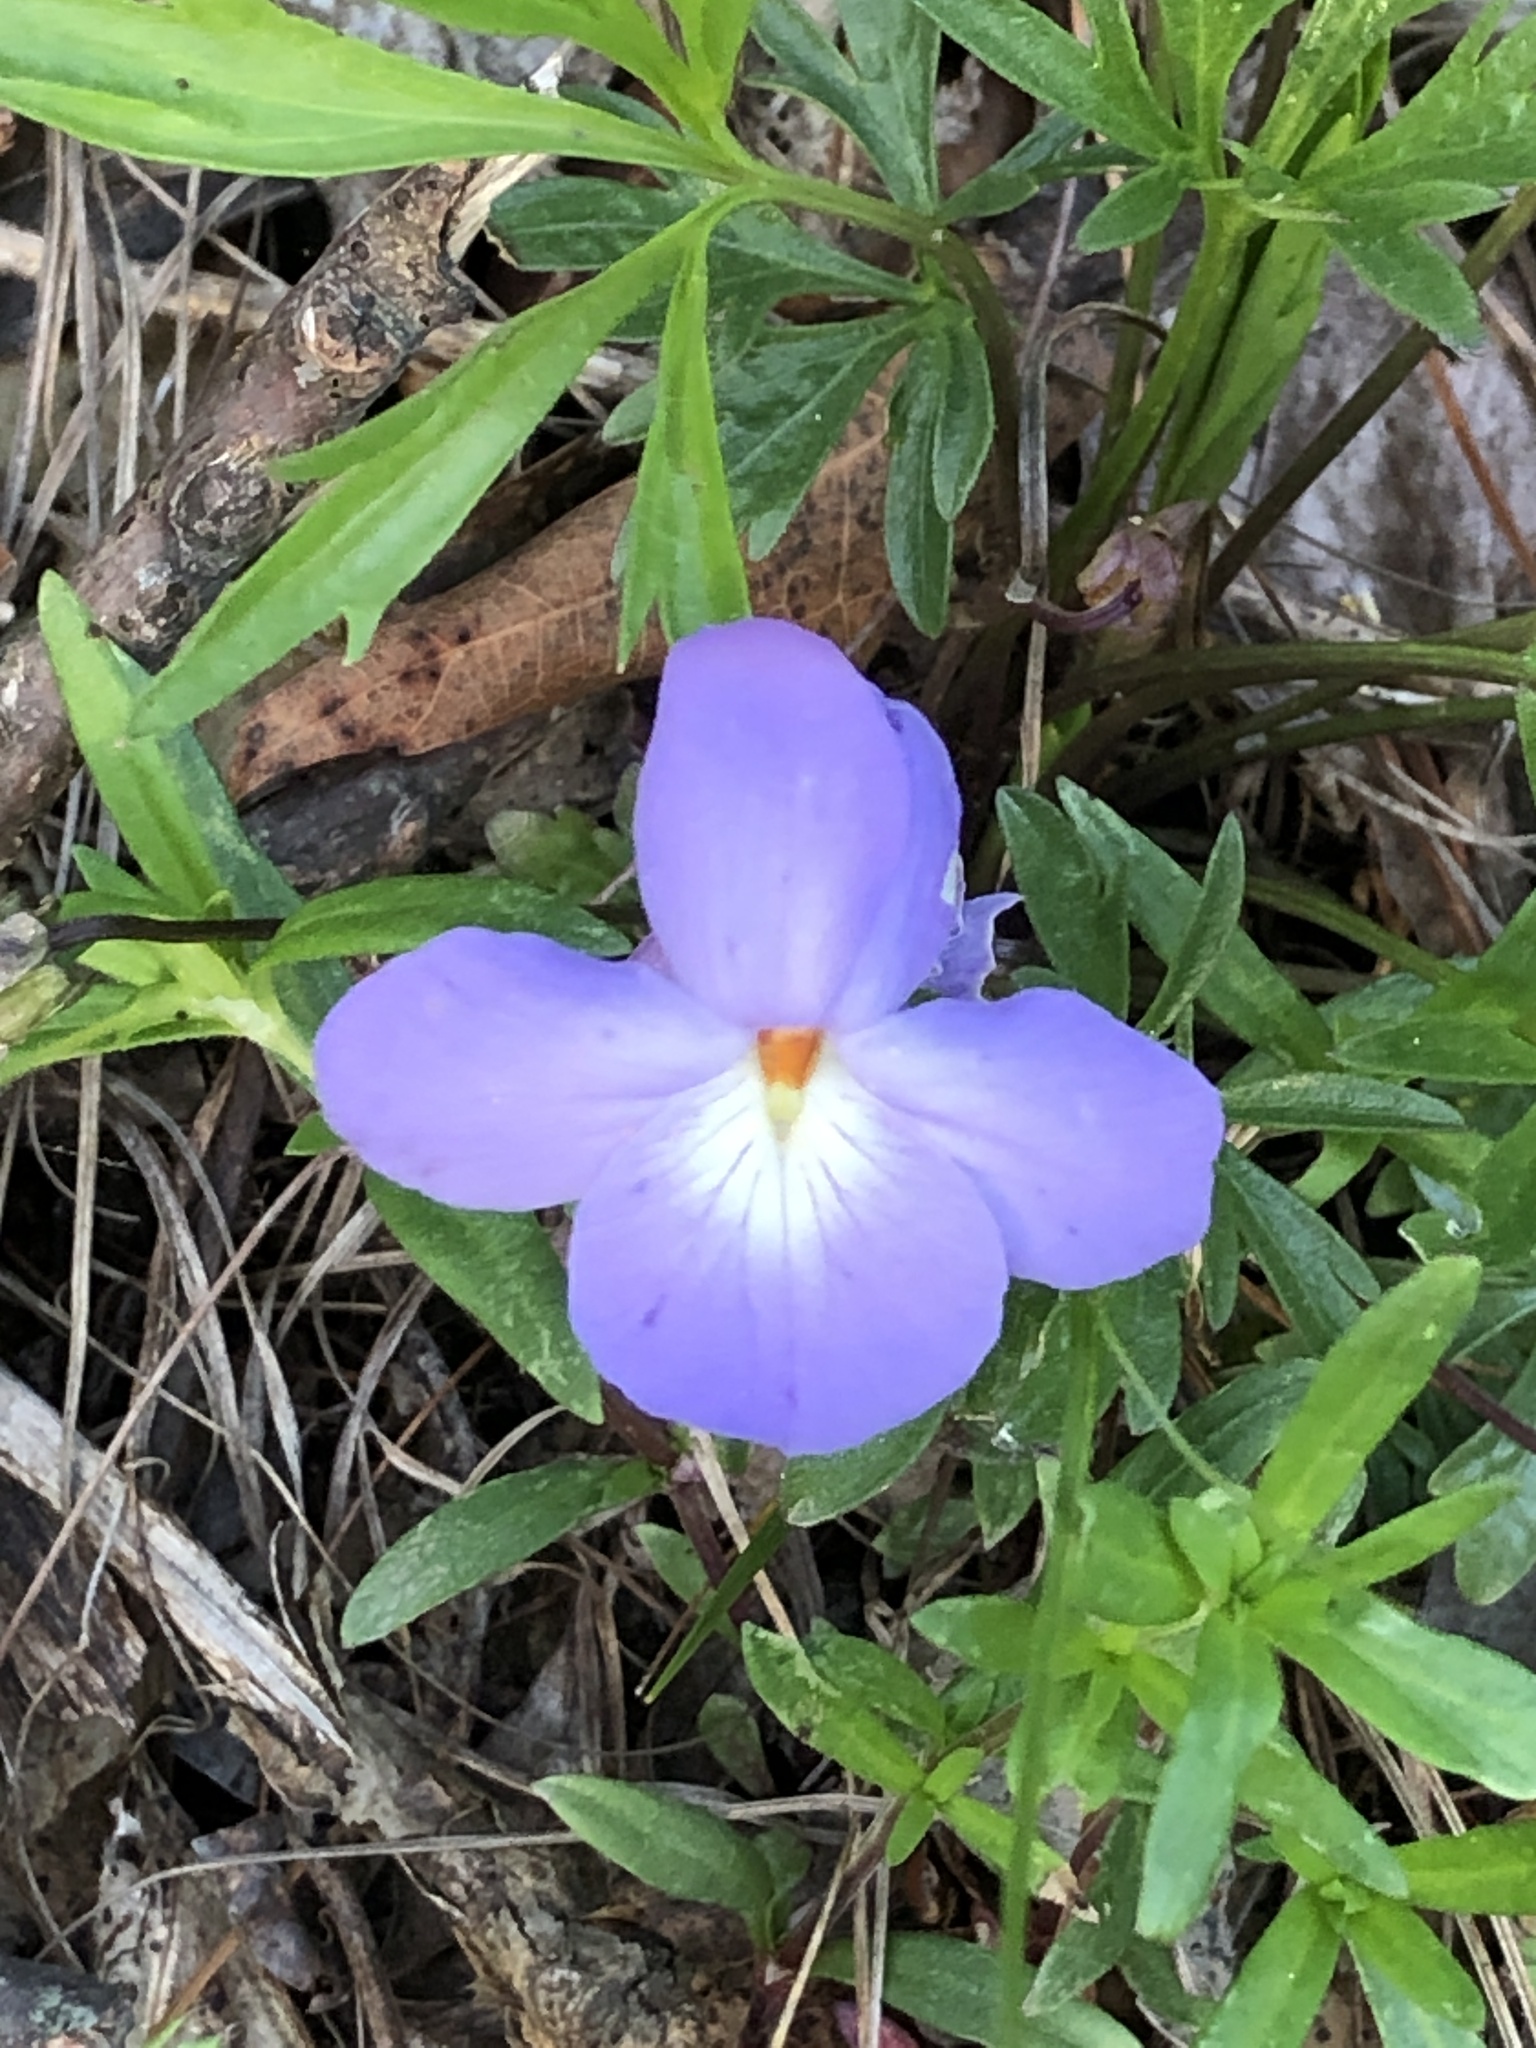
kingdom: Plantae
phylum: Tracheophyta
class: Magnoliopsida
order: Malpighiales
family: Violaceae
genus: Viola
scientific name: Viola pedata
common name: Pansy violet
